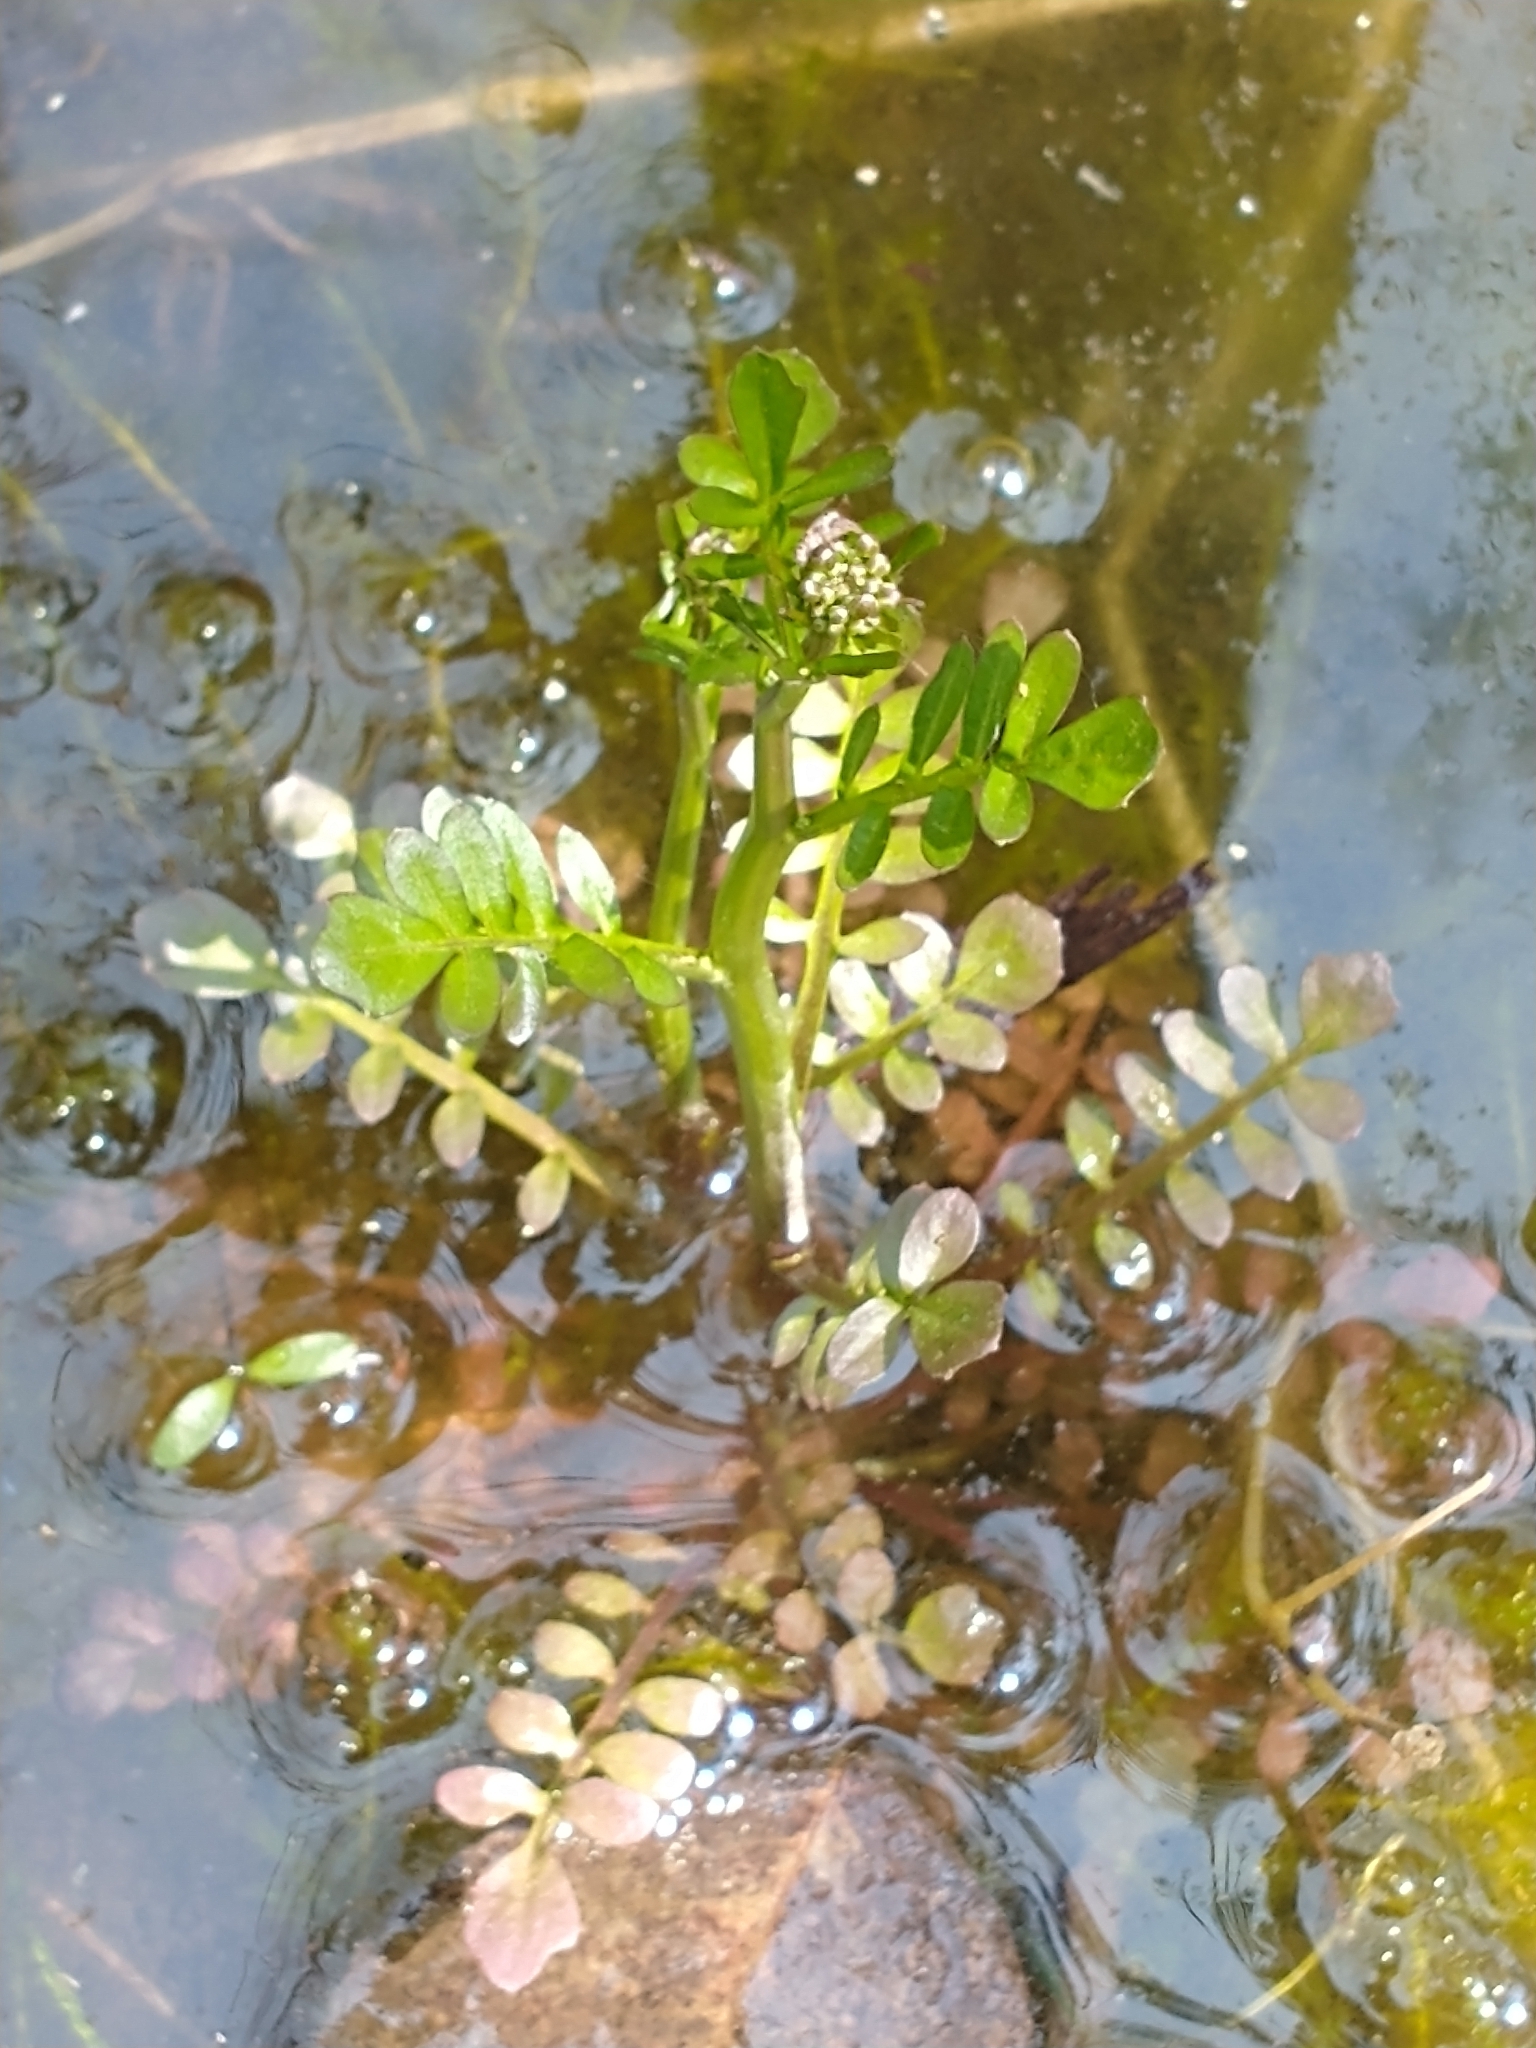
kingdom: Plantae
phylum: Tracheophyta
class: Magnoliopsida
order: Brassicales
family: Brassicaceae
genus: Cardamine
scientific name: Cardamine pensylvanica
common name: Pennsylvania bittercress
